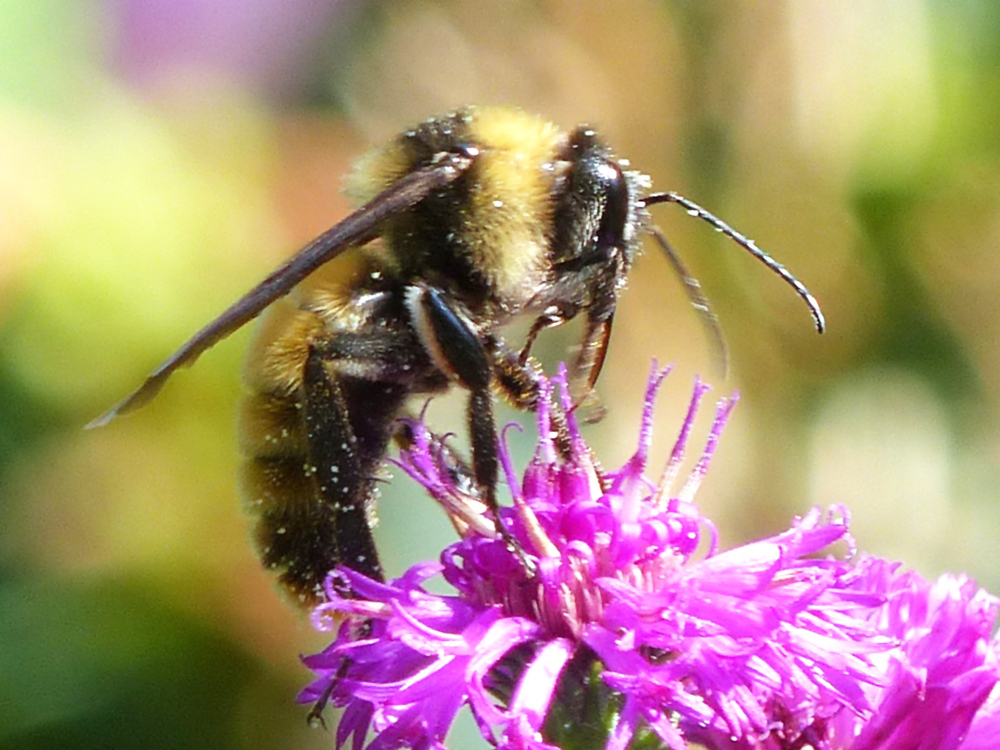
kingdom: Animalia
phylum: Arthropoda
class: Insecta
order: Hymenoptera
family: Apidae
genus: Bombus
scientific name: Bombus pensylvanicus
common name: Bumble bee
